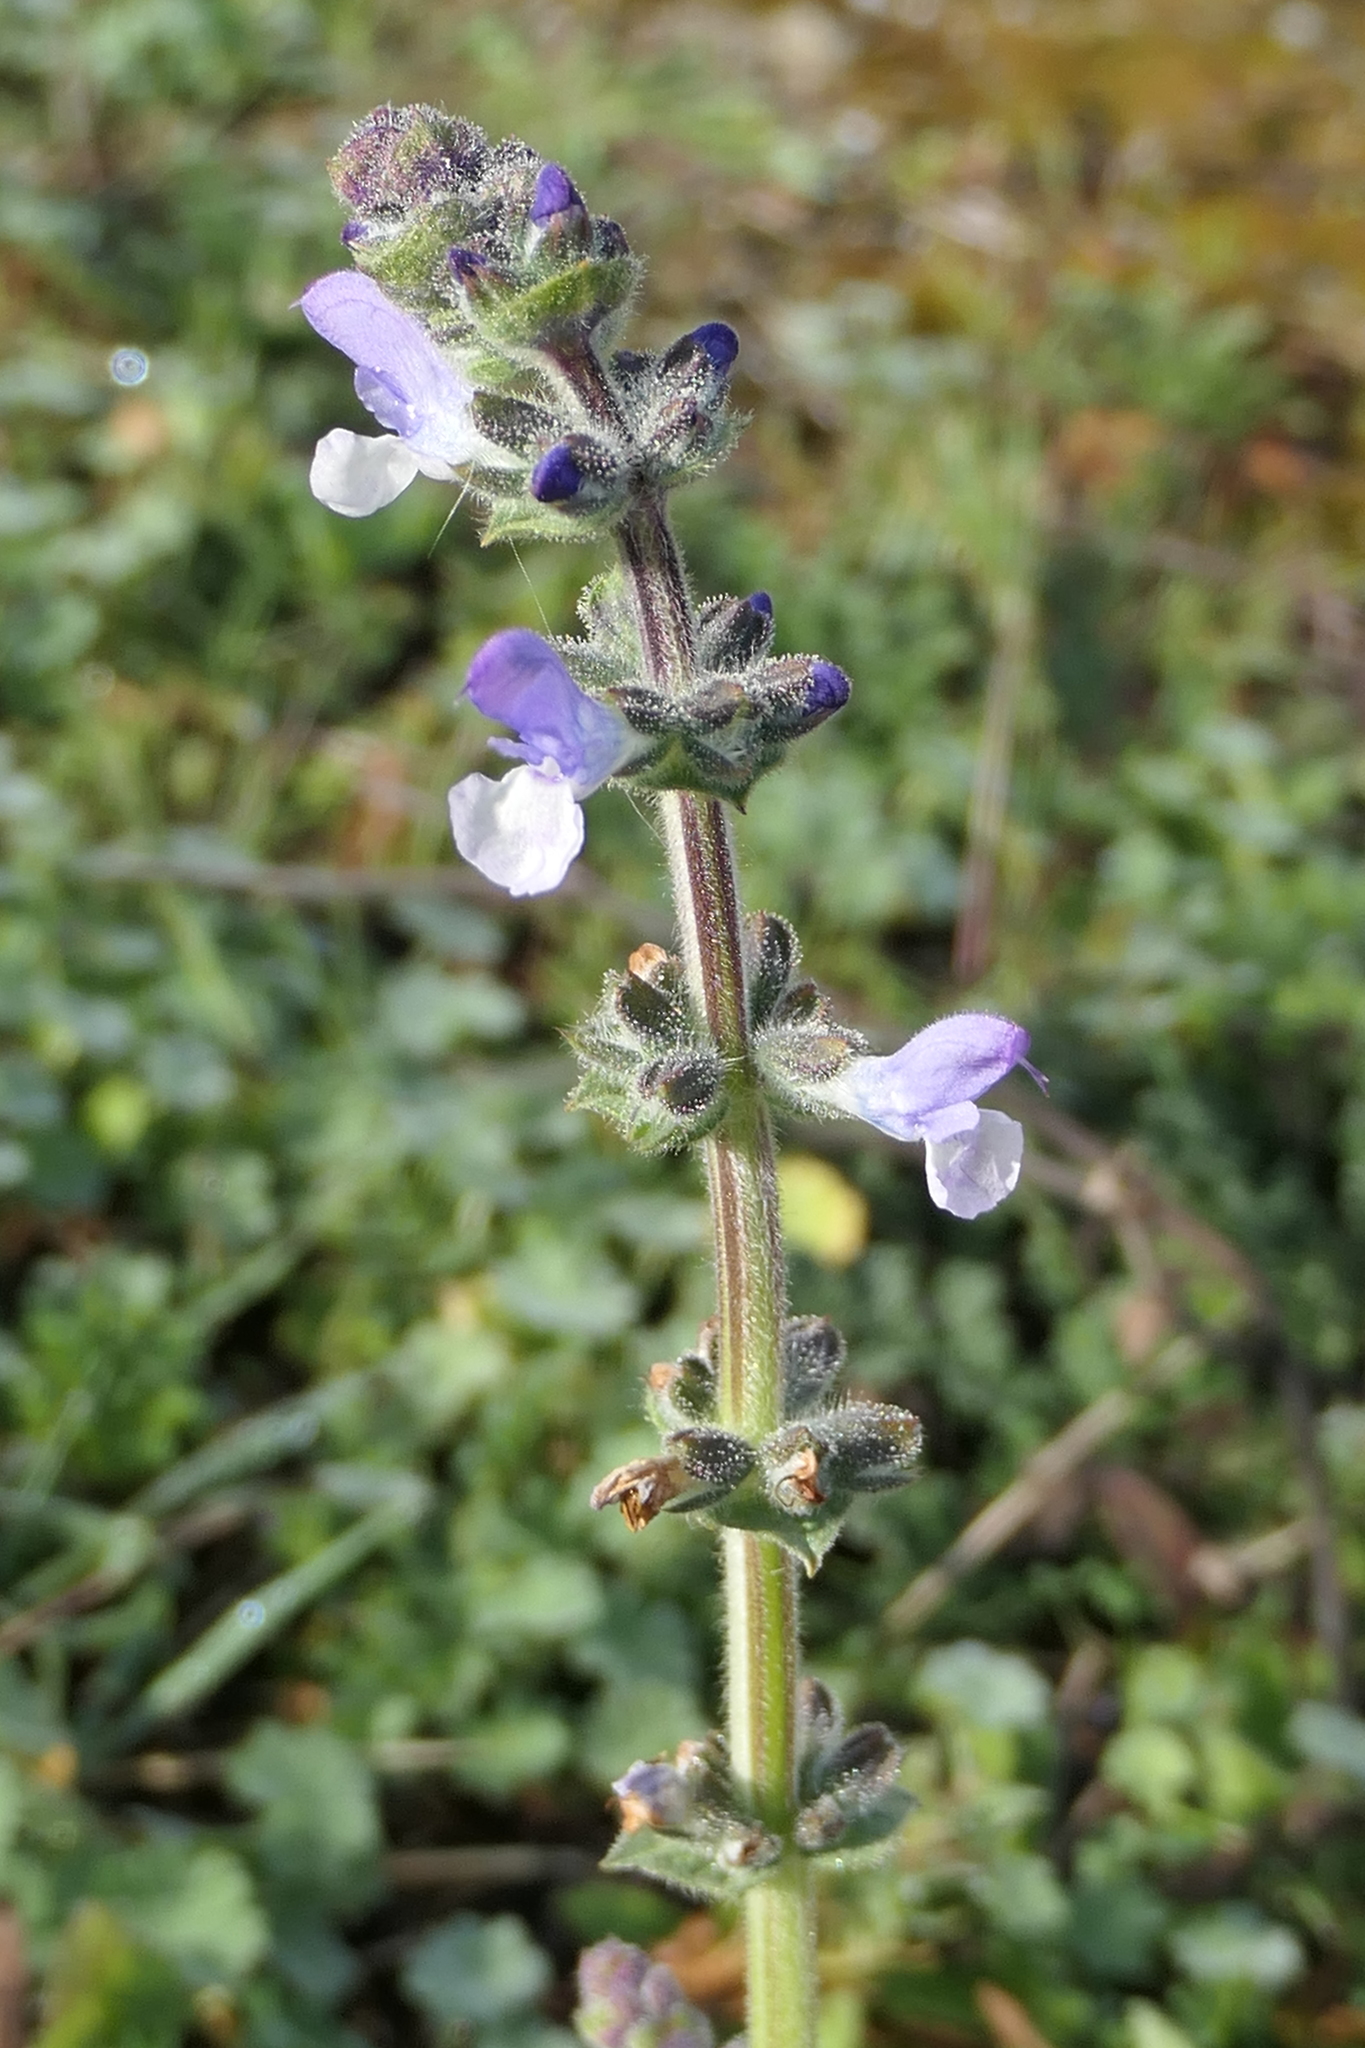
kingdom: Plantae
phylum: Tracheophyta
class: Magnoliopsida
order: Lamiales
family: Lamiaceae
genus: Salvia
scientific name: Salvia verbenaca
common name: Wild clary
